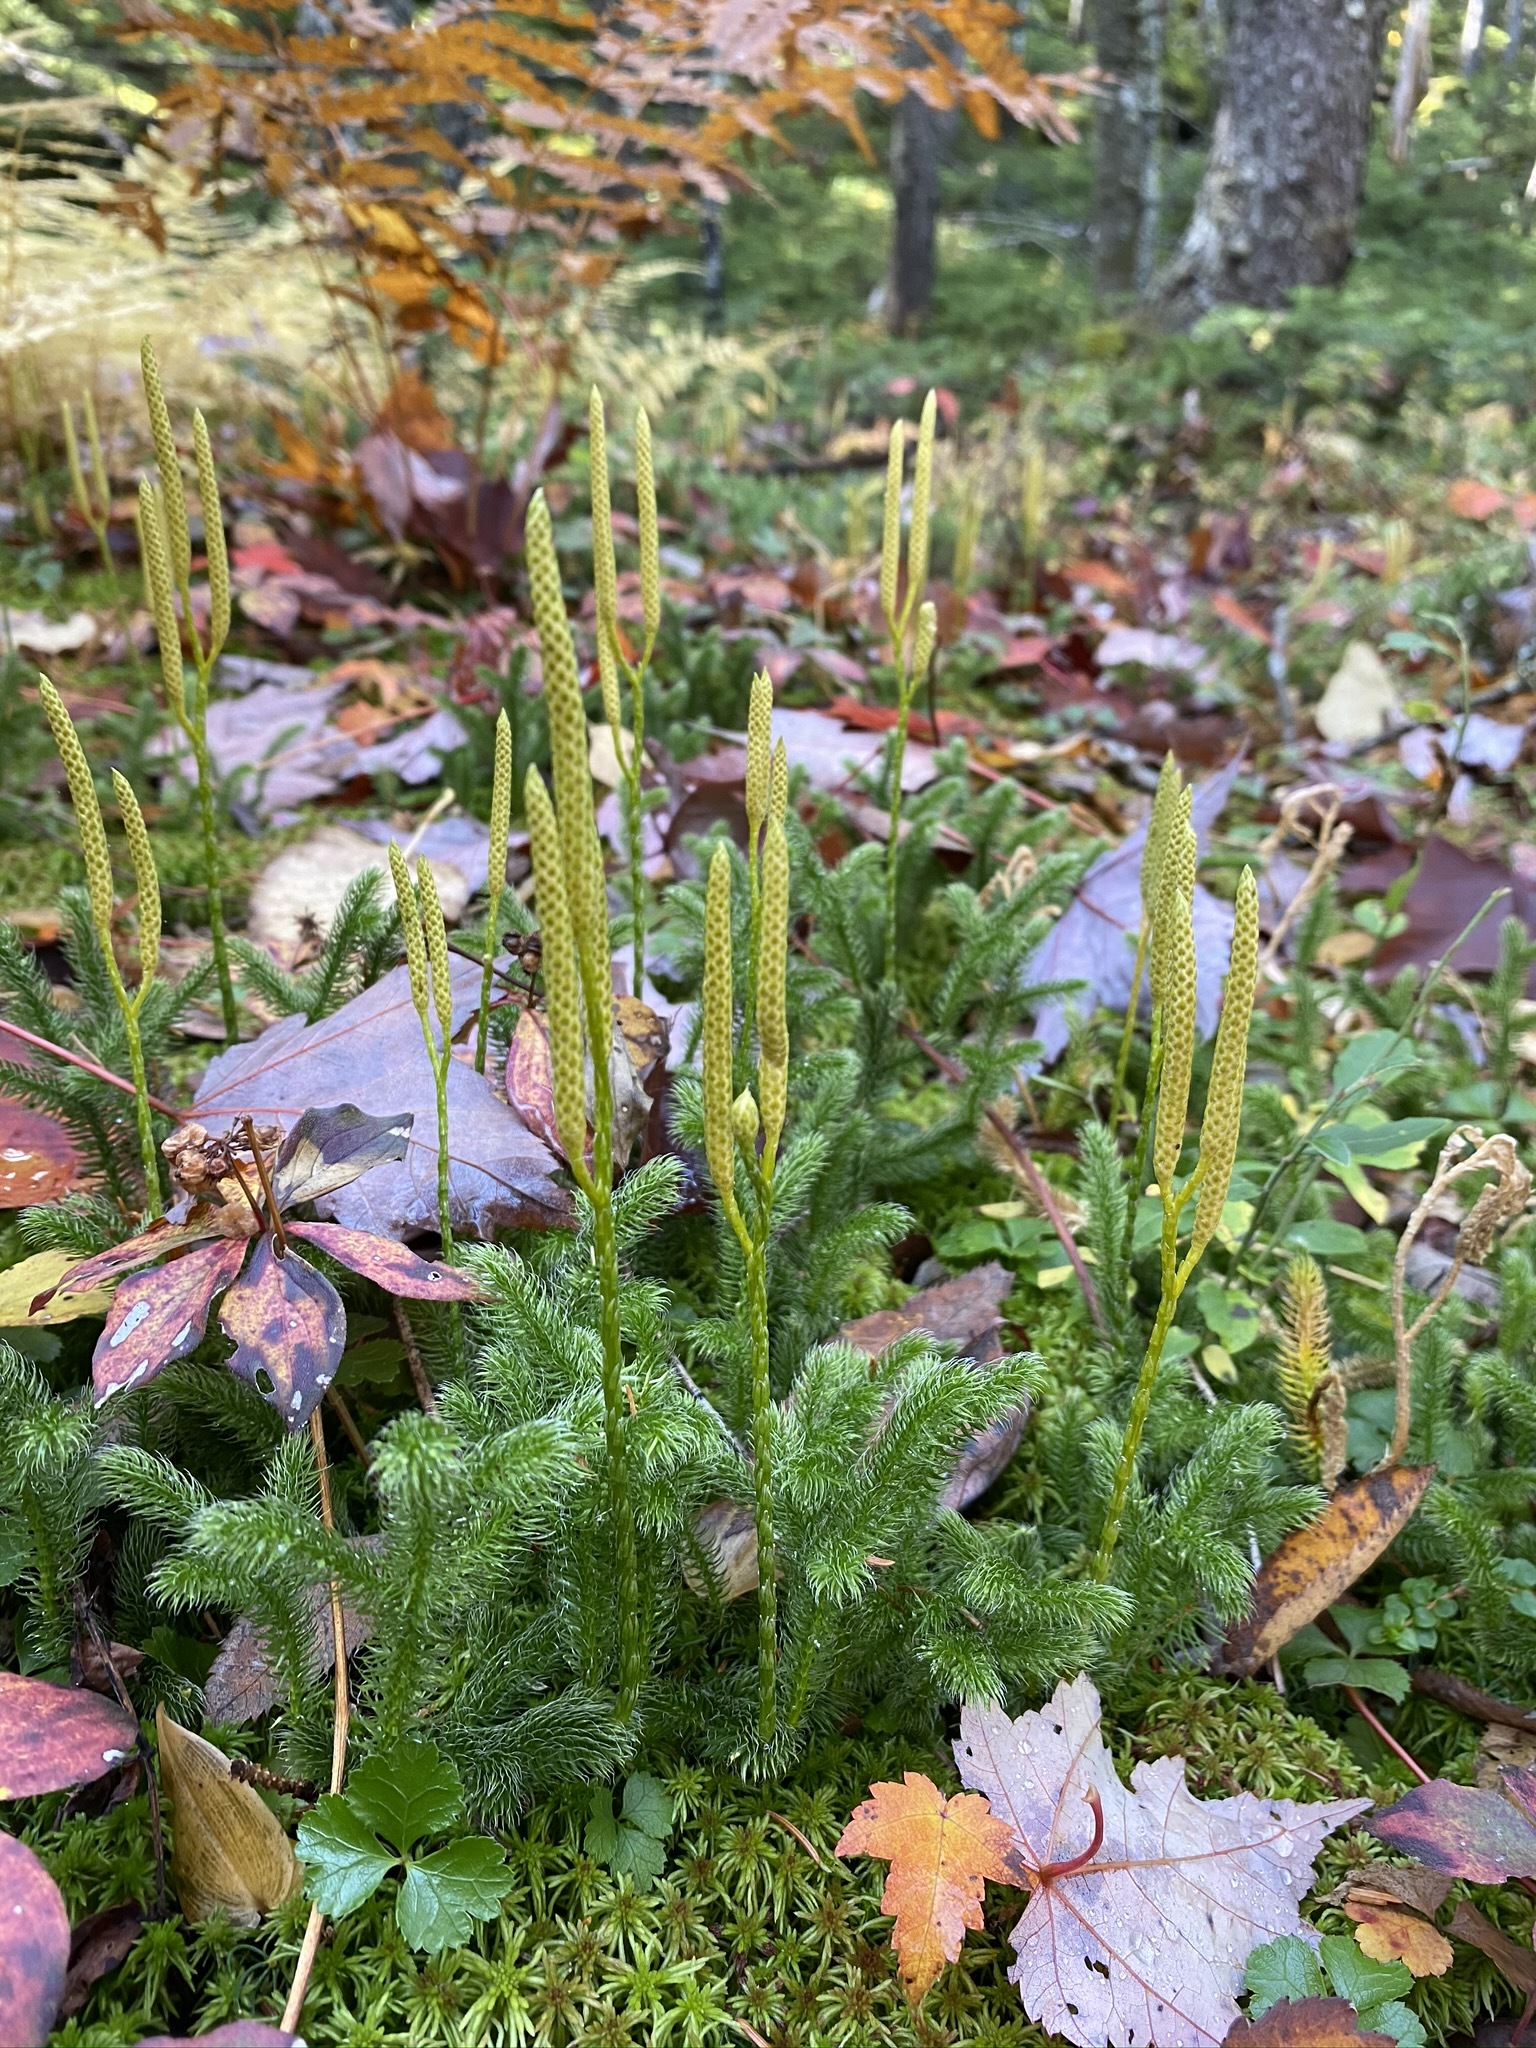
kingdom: Plantae
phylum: Tracheophyta
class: Lycopodiopsida
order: Lycopodiales
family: Lycopodiaceae
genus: Lycopodium
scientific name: Lycopodium clavatum
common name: Stag's-horn clubmoss
